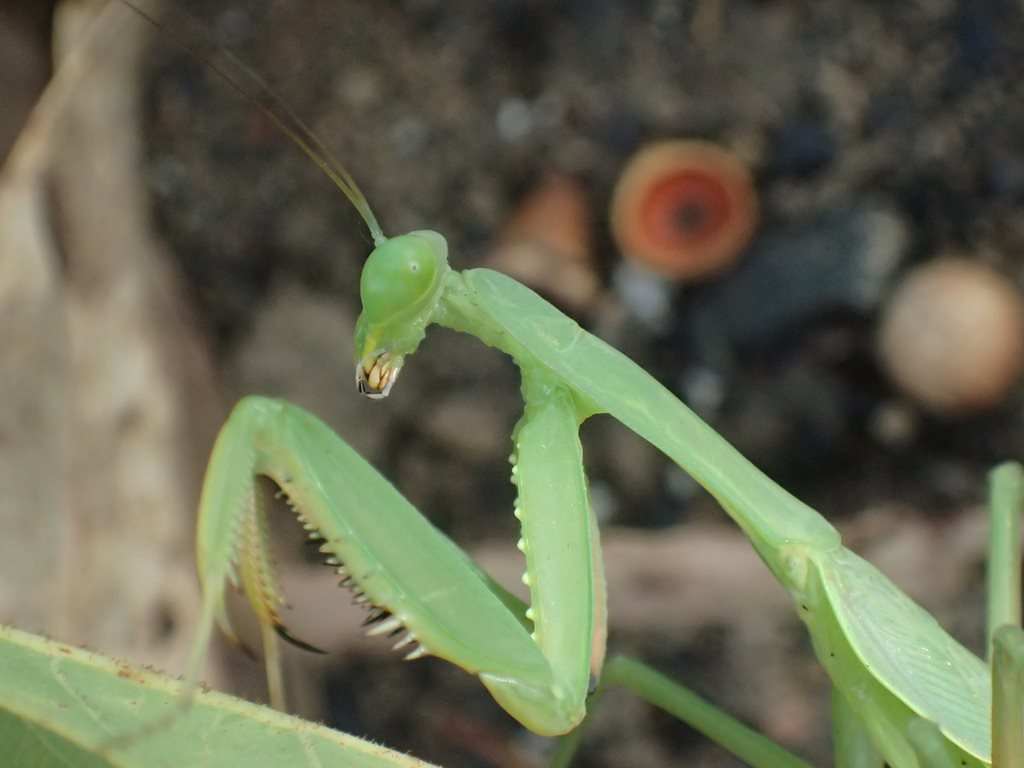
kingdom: Animalia
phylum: Arthropoda
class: Insecta
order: Mantodea
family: Mantidae
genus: Hierodula
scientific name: Hierodula werneri
